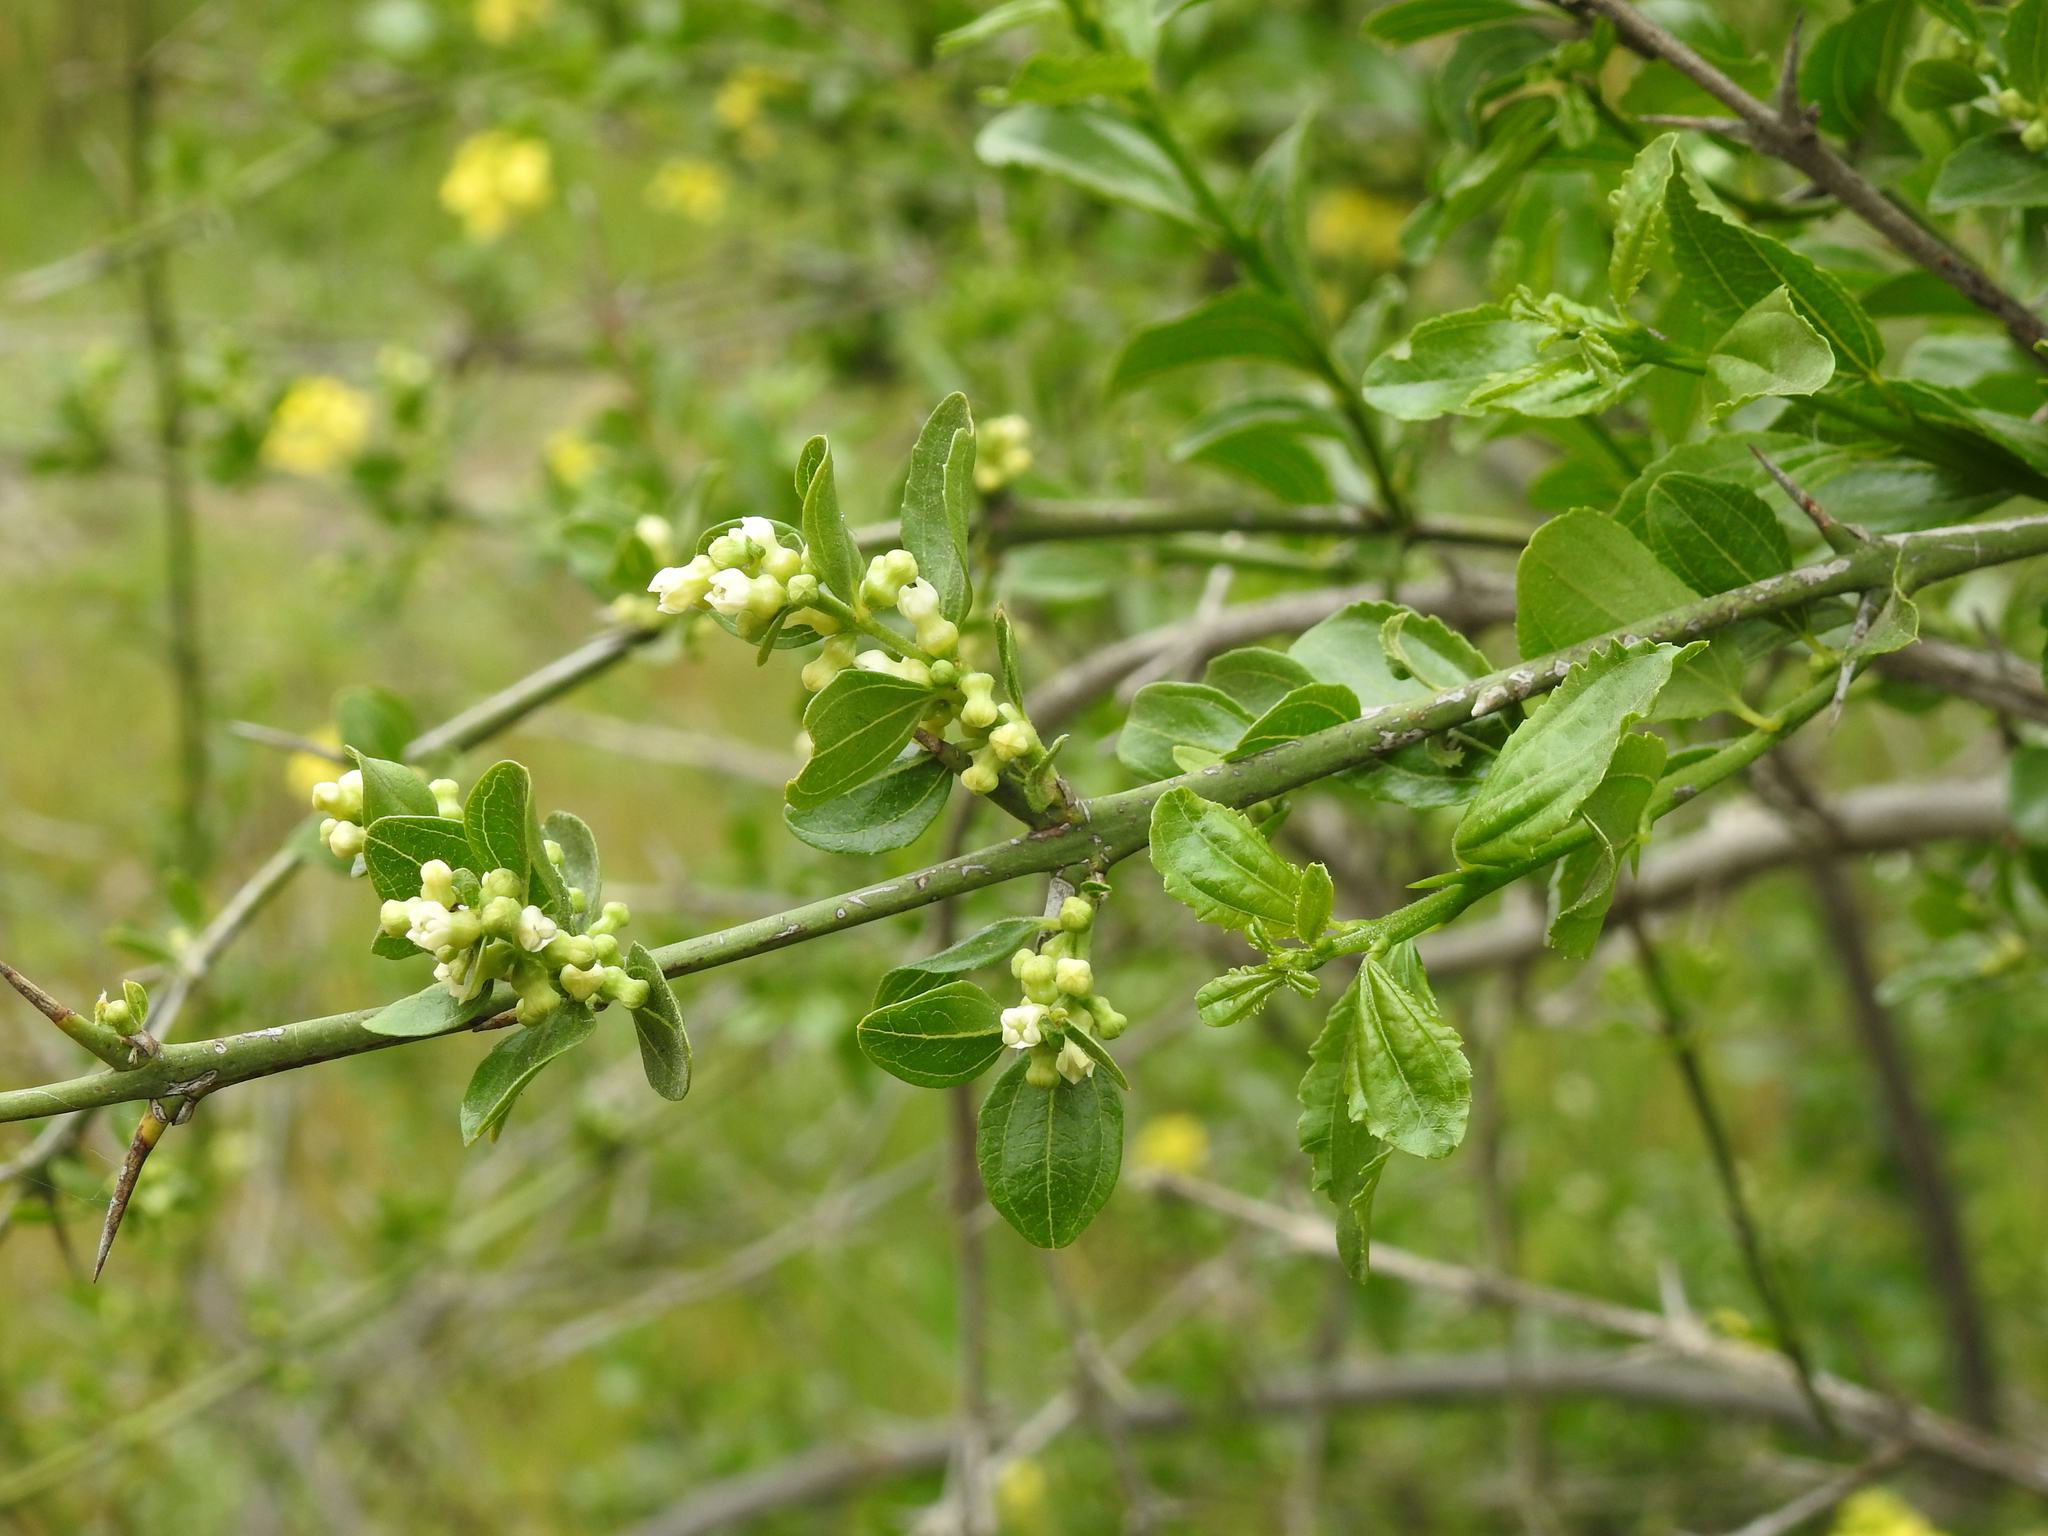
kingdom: Plantae
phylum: Tracheophyta
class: Magnoliopsida
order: Rosales
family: Rhamnaceae
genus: Retanilla
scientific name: Retanilla trinervia
